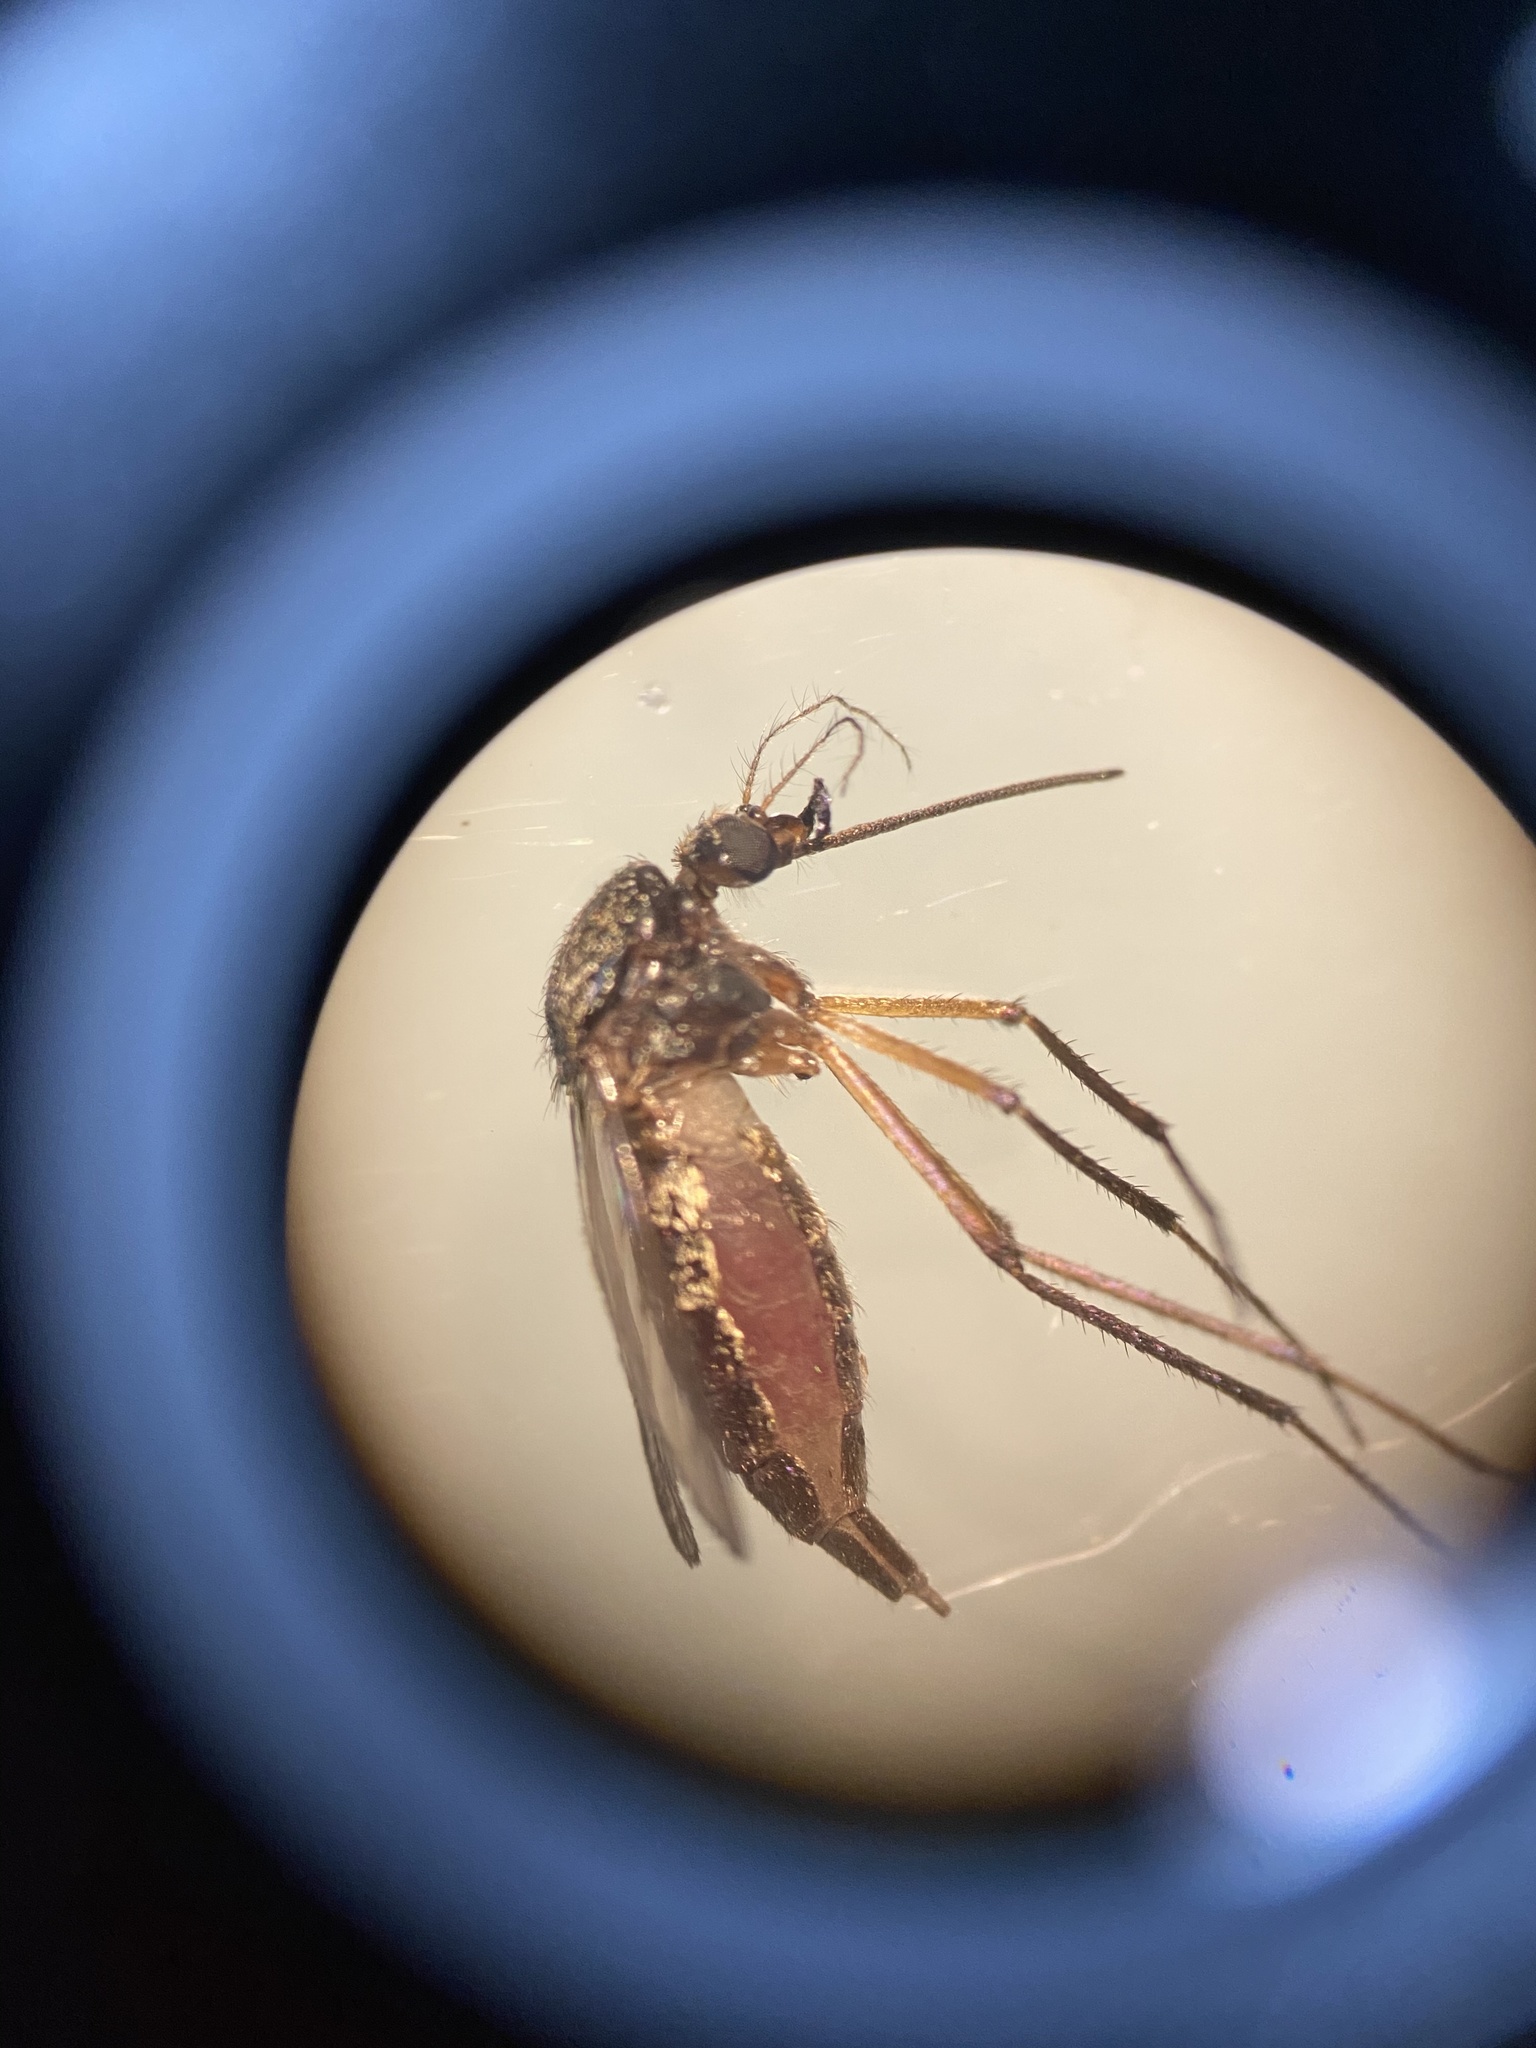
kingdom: Animalia
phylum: Arthropoda
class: Insecta
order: Diptera
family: Culicidae
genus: Psorophora
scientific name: Psorophora cyanescens
